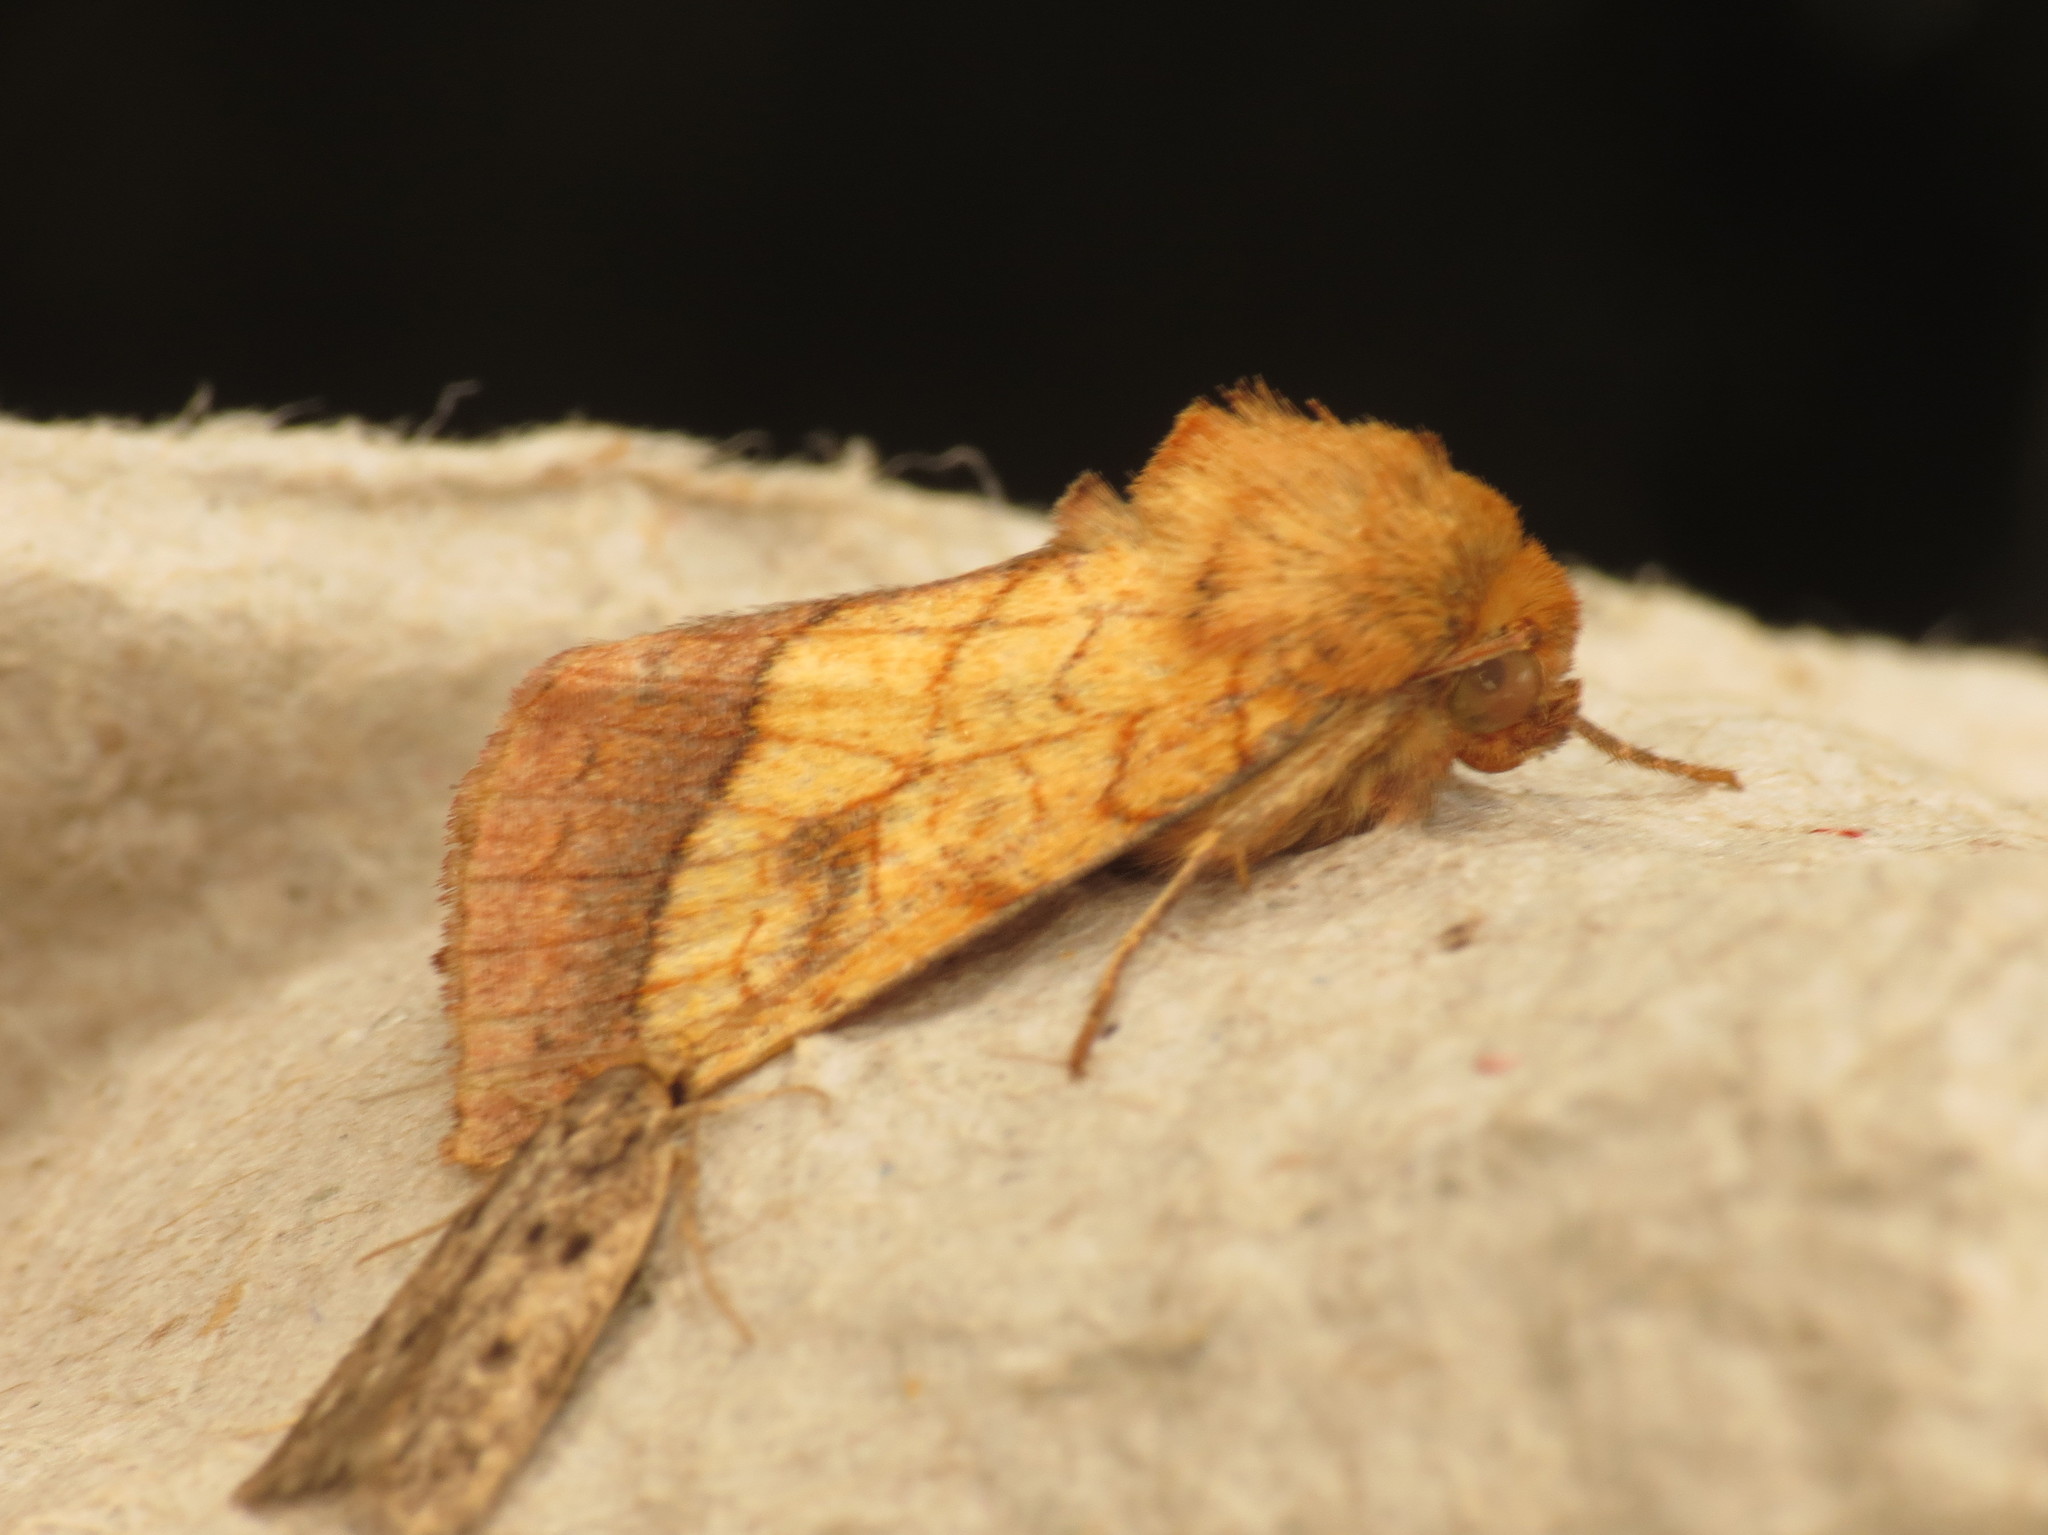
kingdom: Animalia
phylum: Arthropoda
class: Insecta
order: Lepidoptera
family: Noctuidae
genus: Pyrrhia
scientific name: Pyrrhia umbra
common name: Bordered sallow
